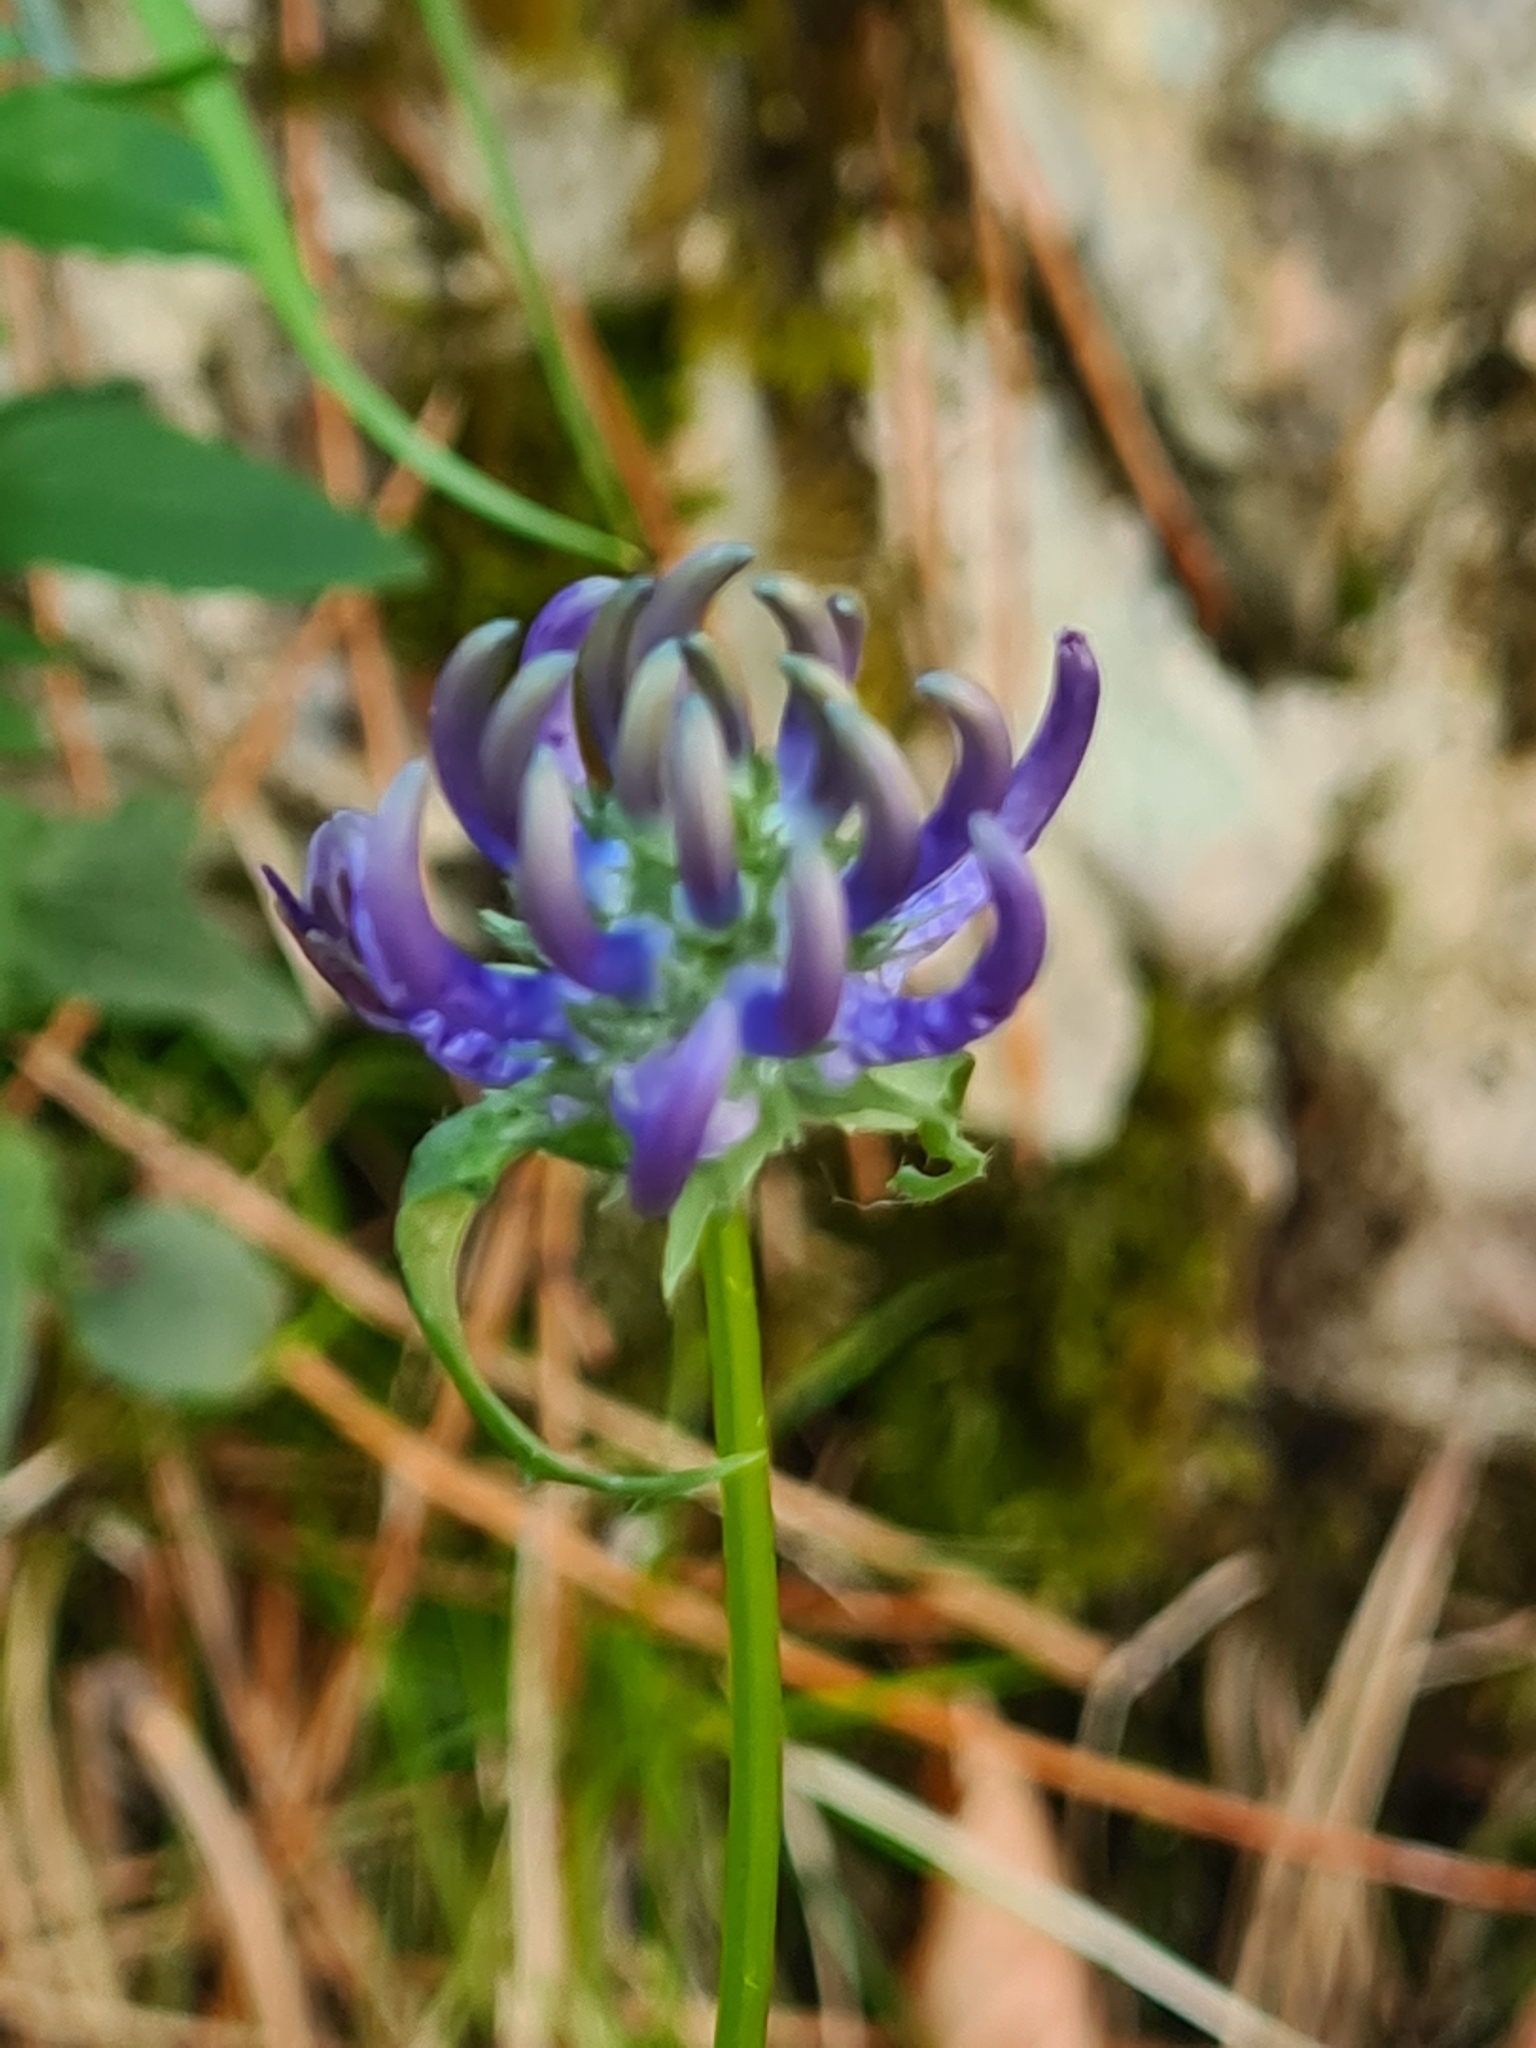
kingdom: Plantae
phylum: Tracheophyta
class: Magnoliopsida
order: Asterales
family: Campanulaceae
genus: Phyteuma
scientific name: Phyteuma orbiculare
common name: Round-headed rampion
